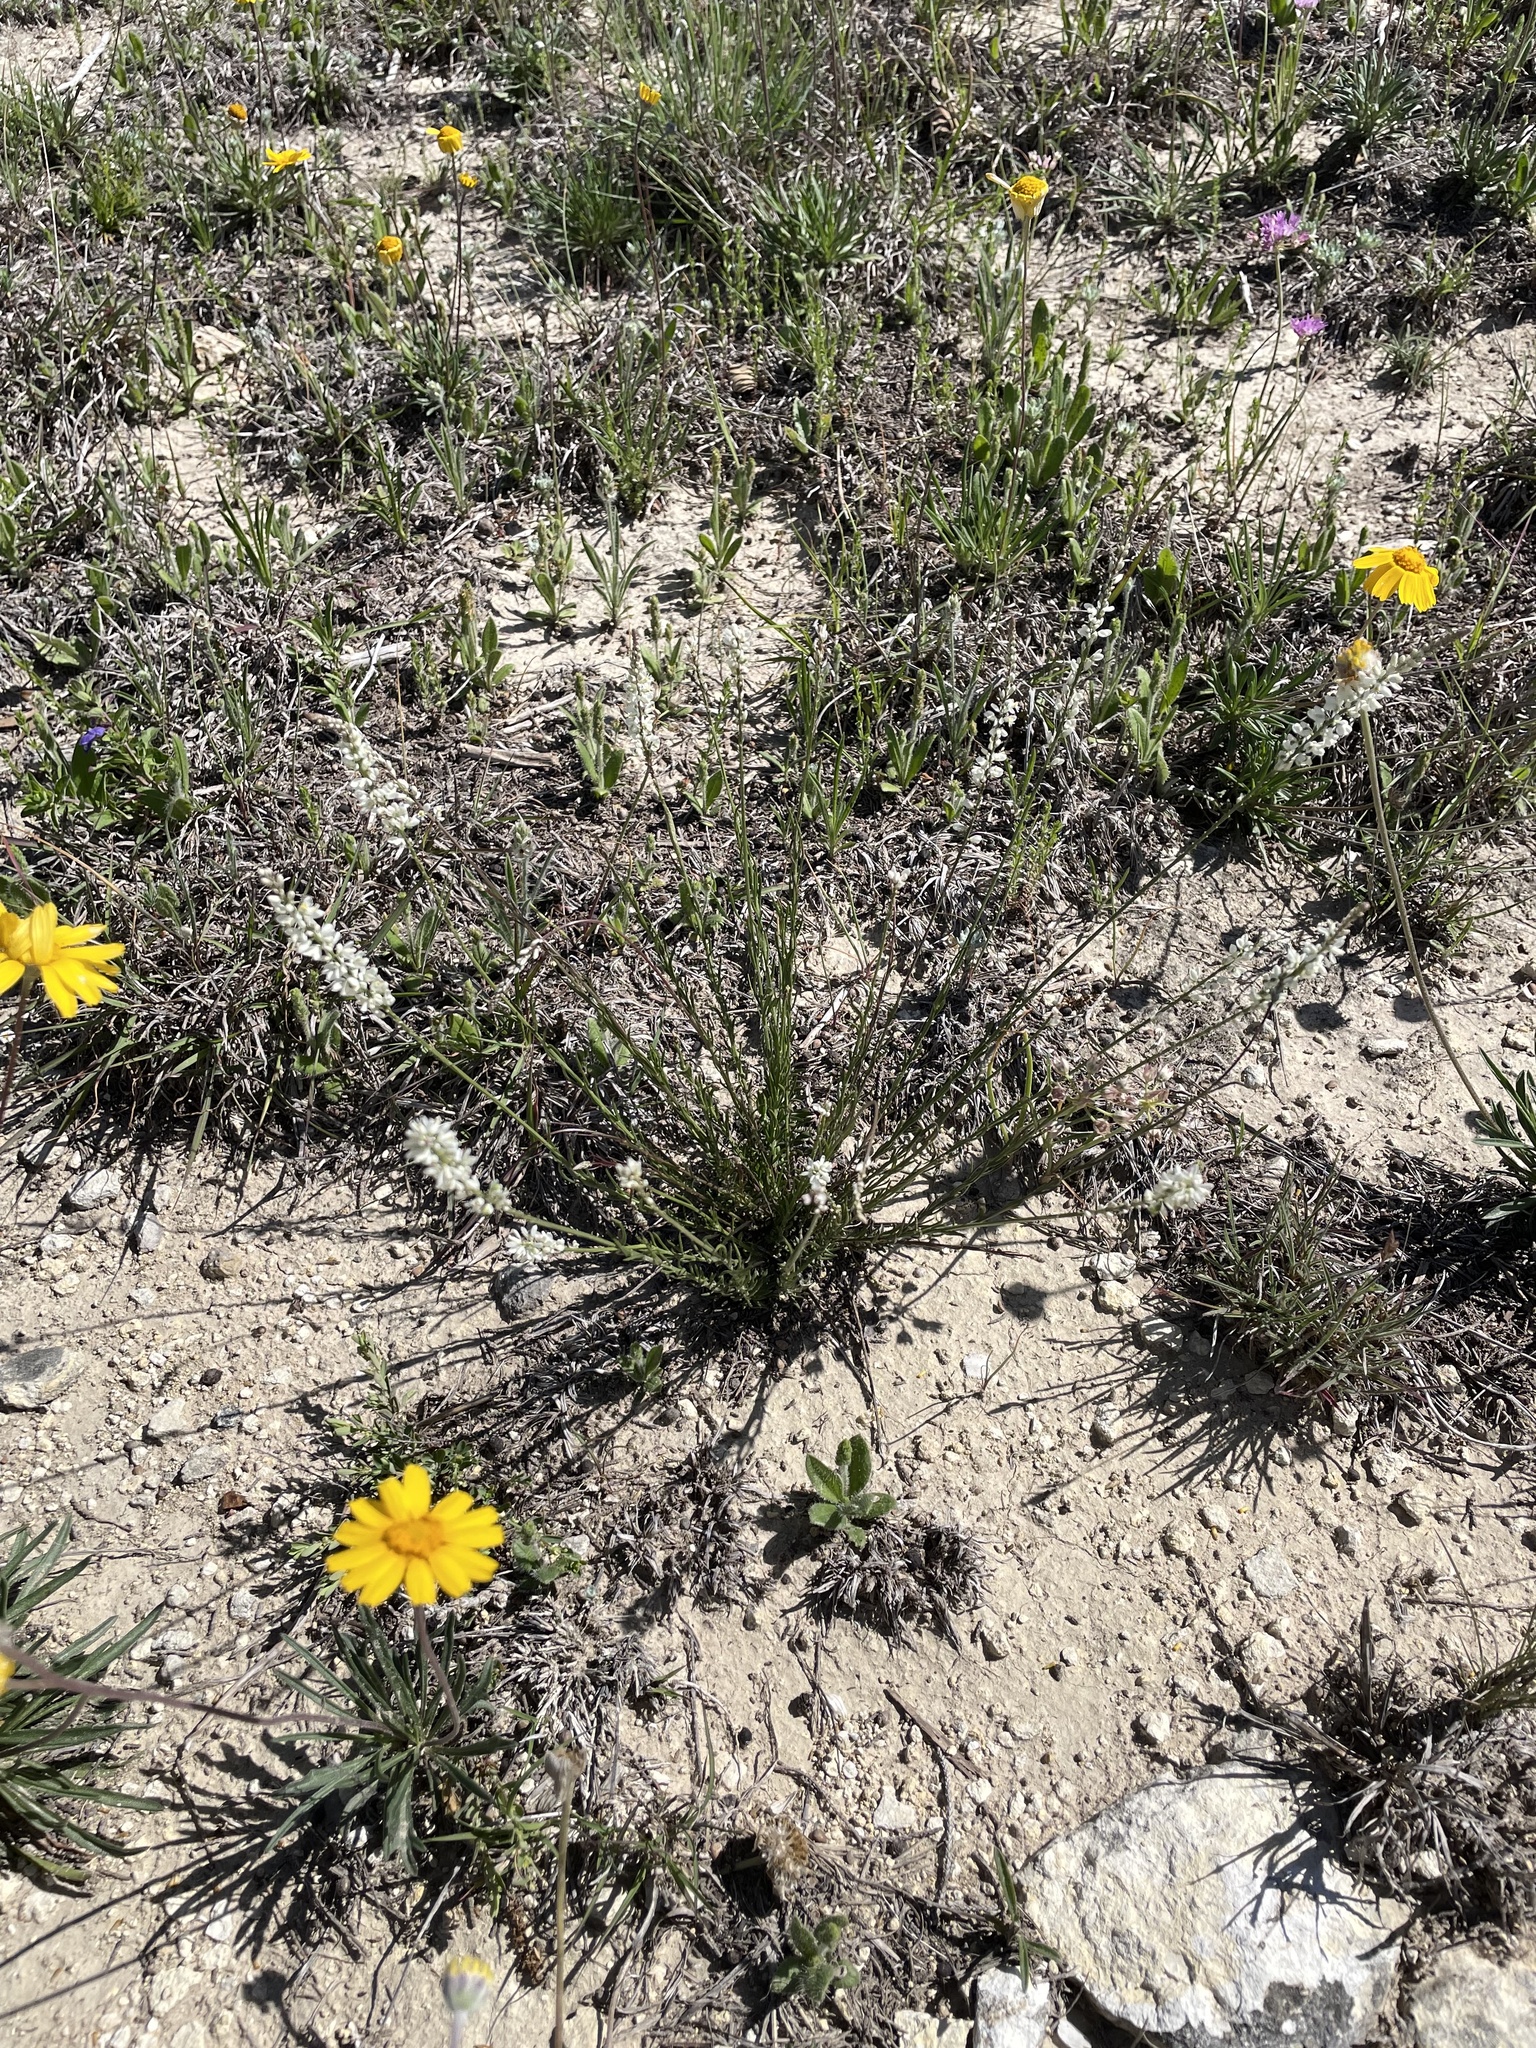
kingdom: Plantae
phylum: Tracheophyta
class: Magnoliopsida
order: Fabales
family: Polygalaceae
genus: Polygala
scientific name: Polygala alba
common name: White milkwort
